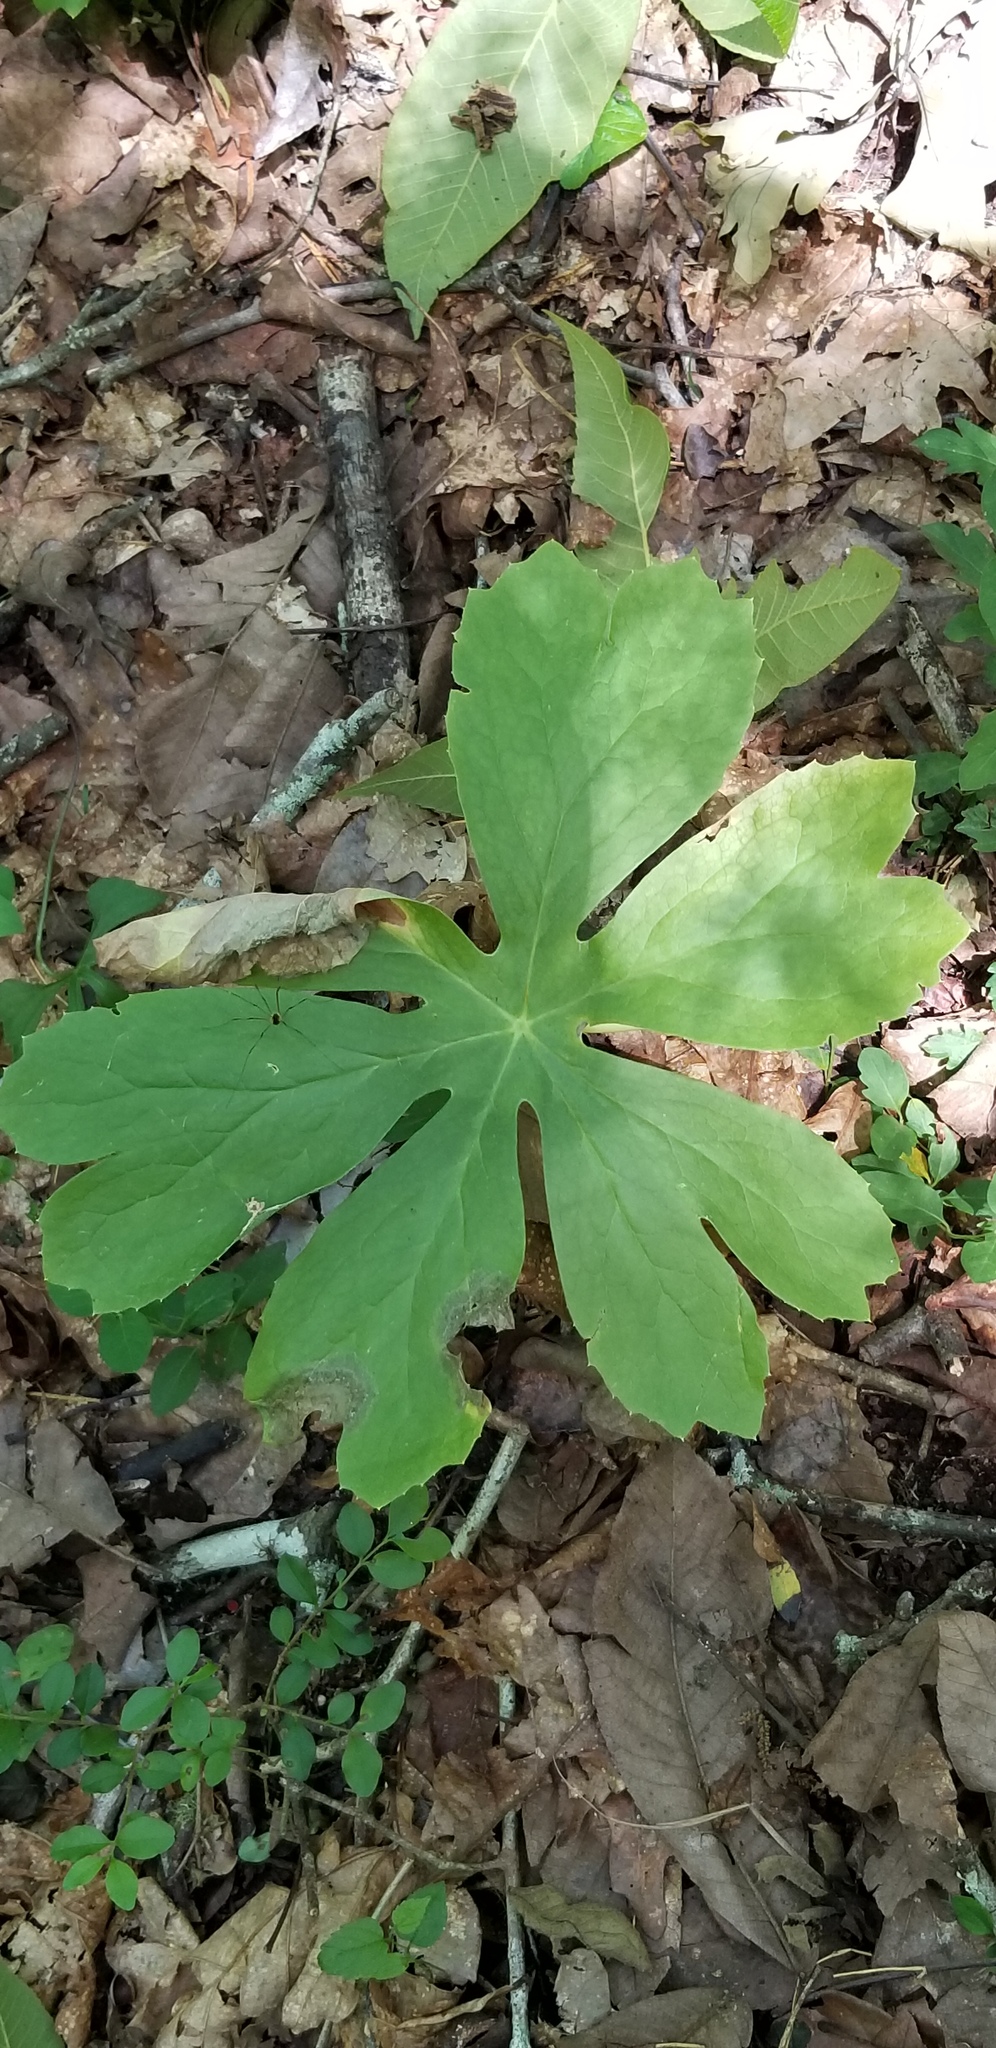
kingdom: Plantae
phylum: Tracheophyta
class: Magnoliopsida
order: Ranunculales
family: Berberidaceae
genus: Podophyllum
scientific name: Podophyllum peltatum
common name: Wild mandrake
